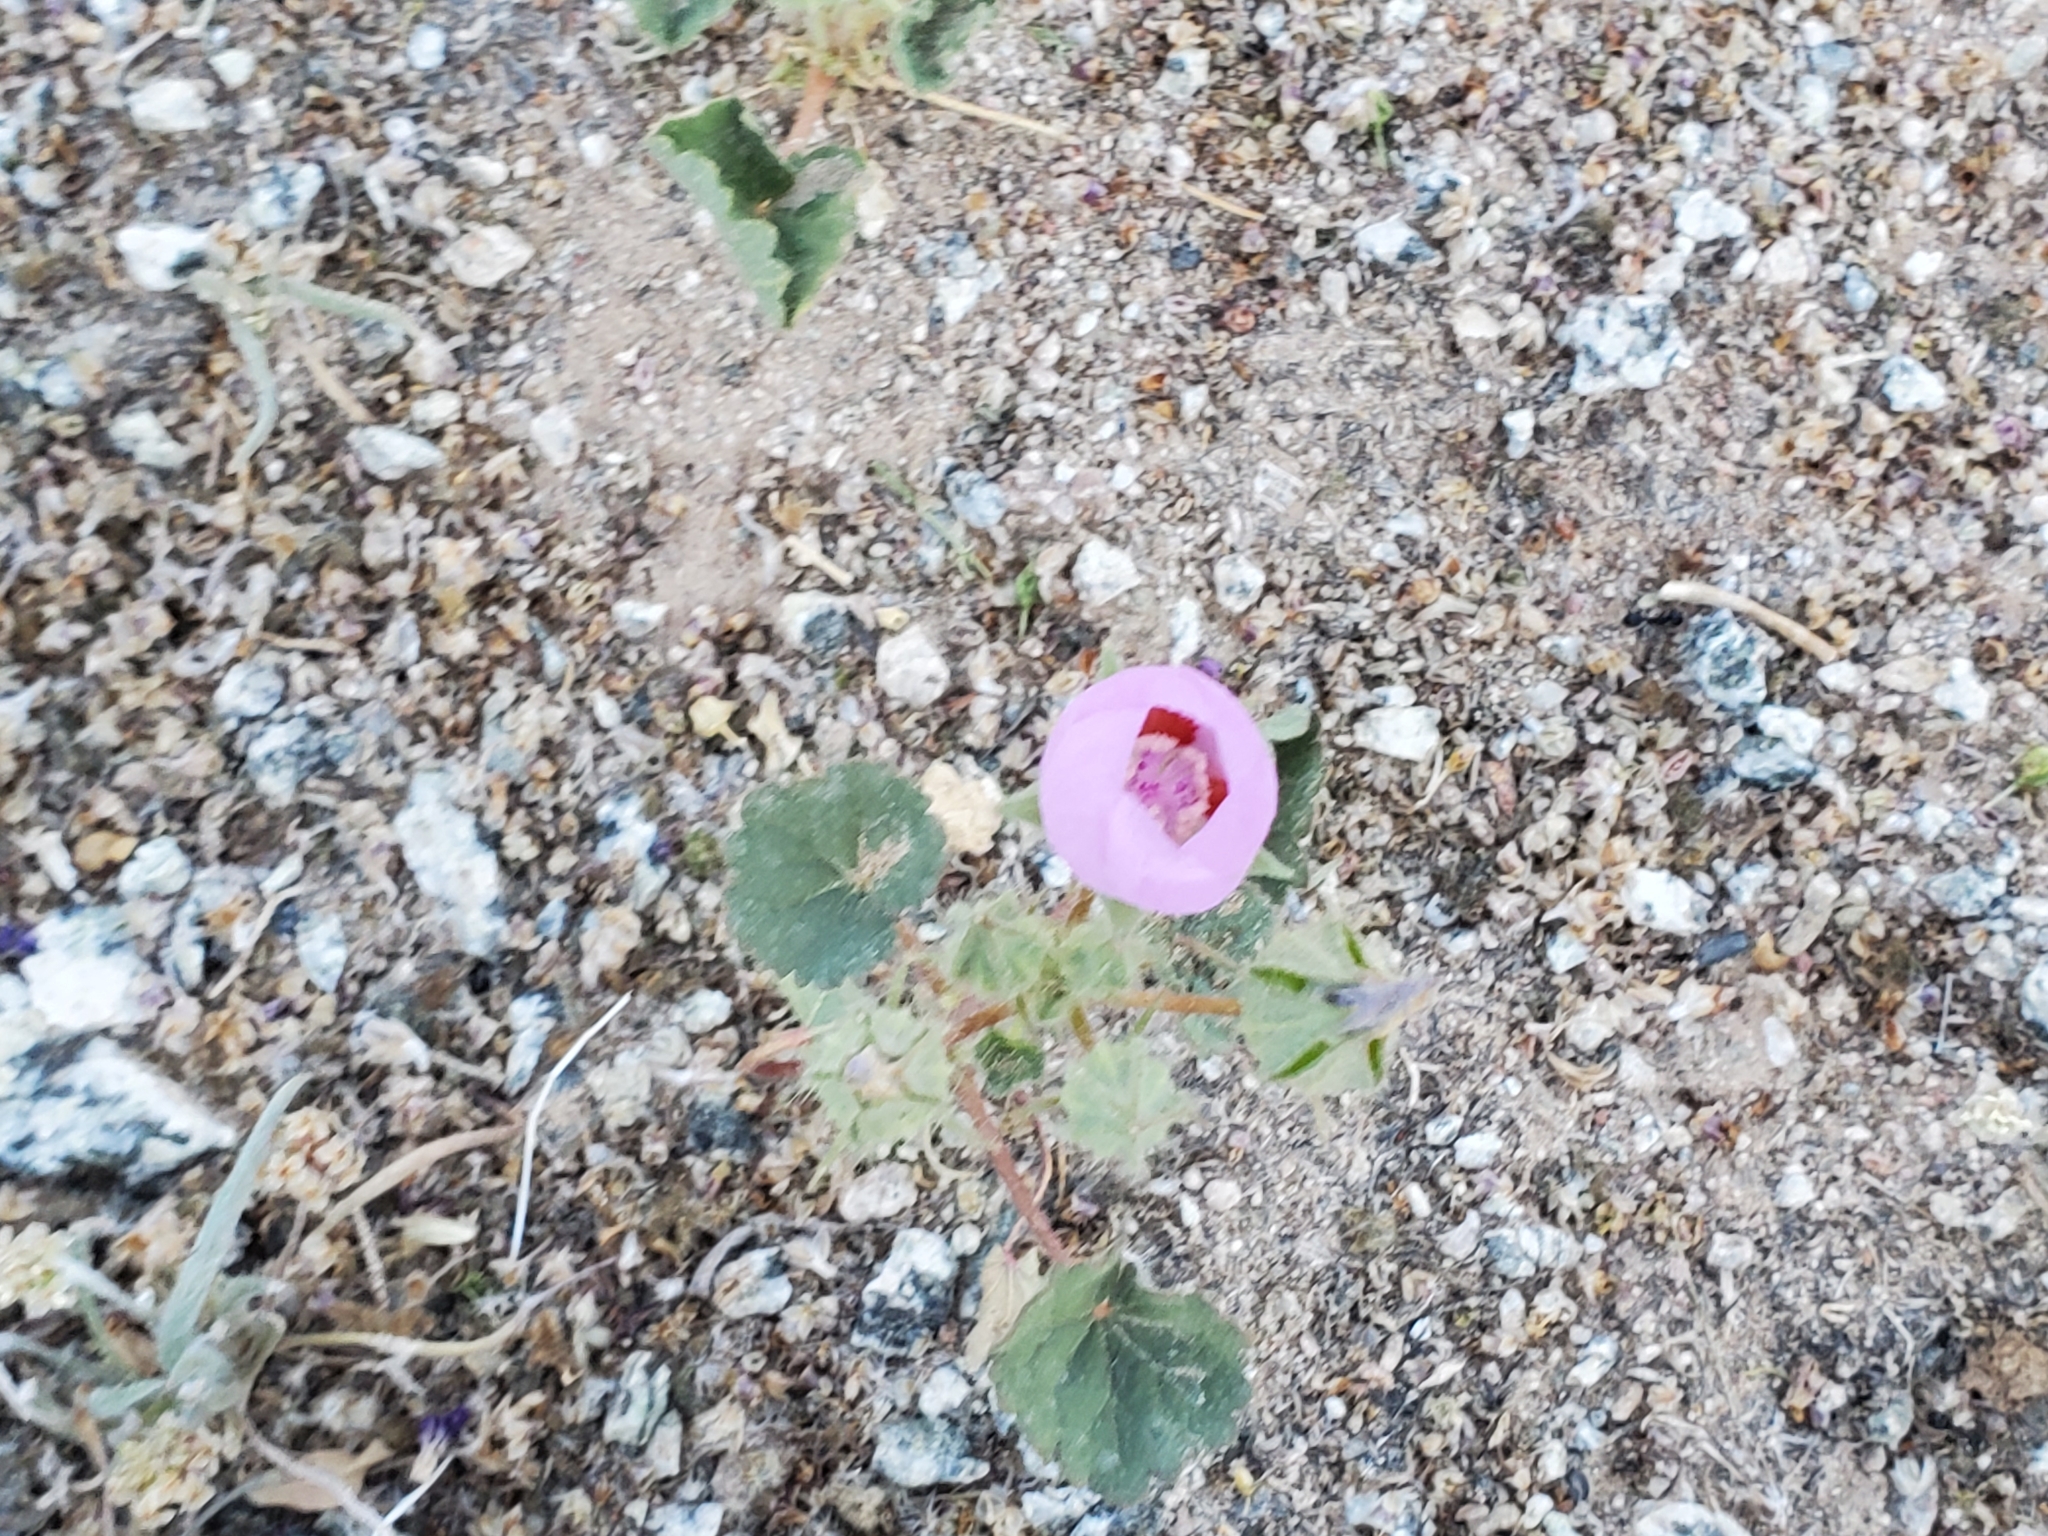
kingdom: Plantae
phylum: Tracheophyta
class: Magnoliopsida
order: Malvales
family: Malvaceae
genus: Eremalche
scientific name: Eremalche rotundifolia
